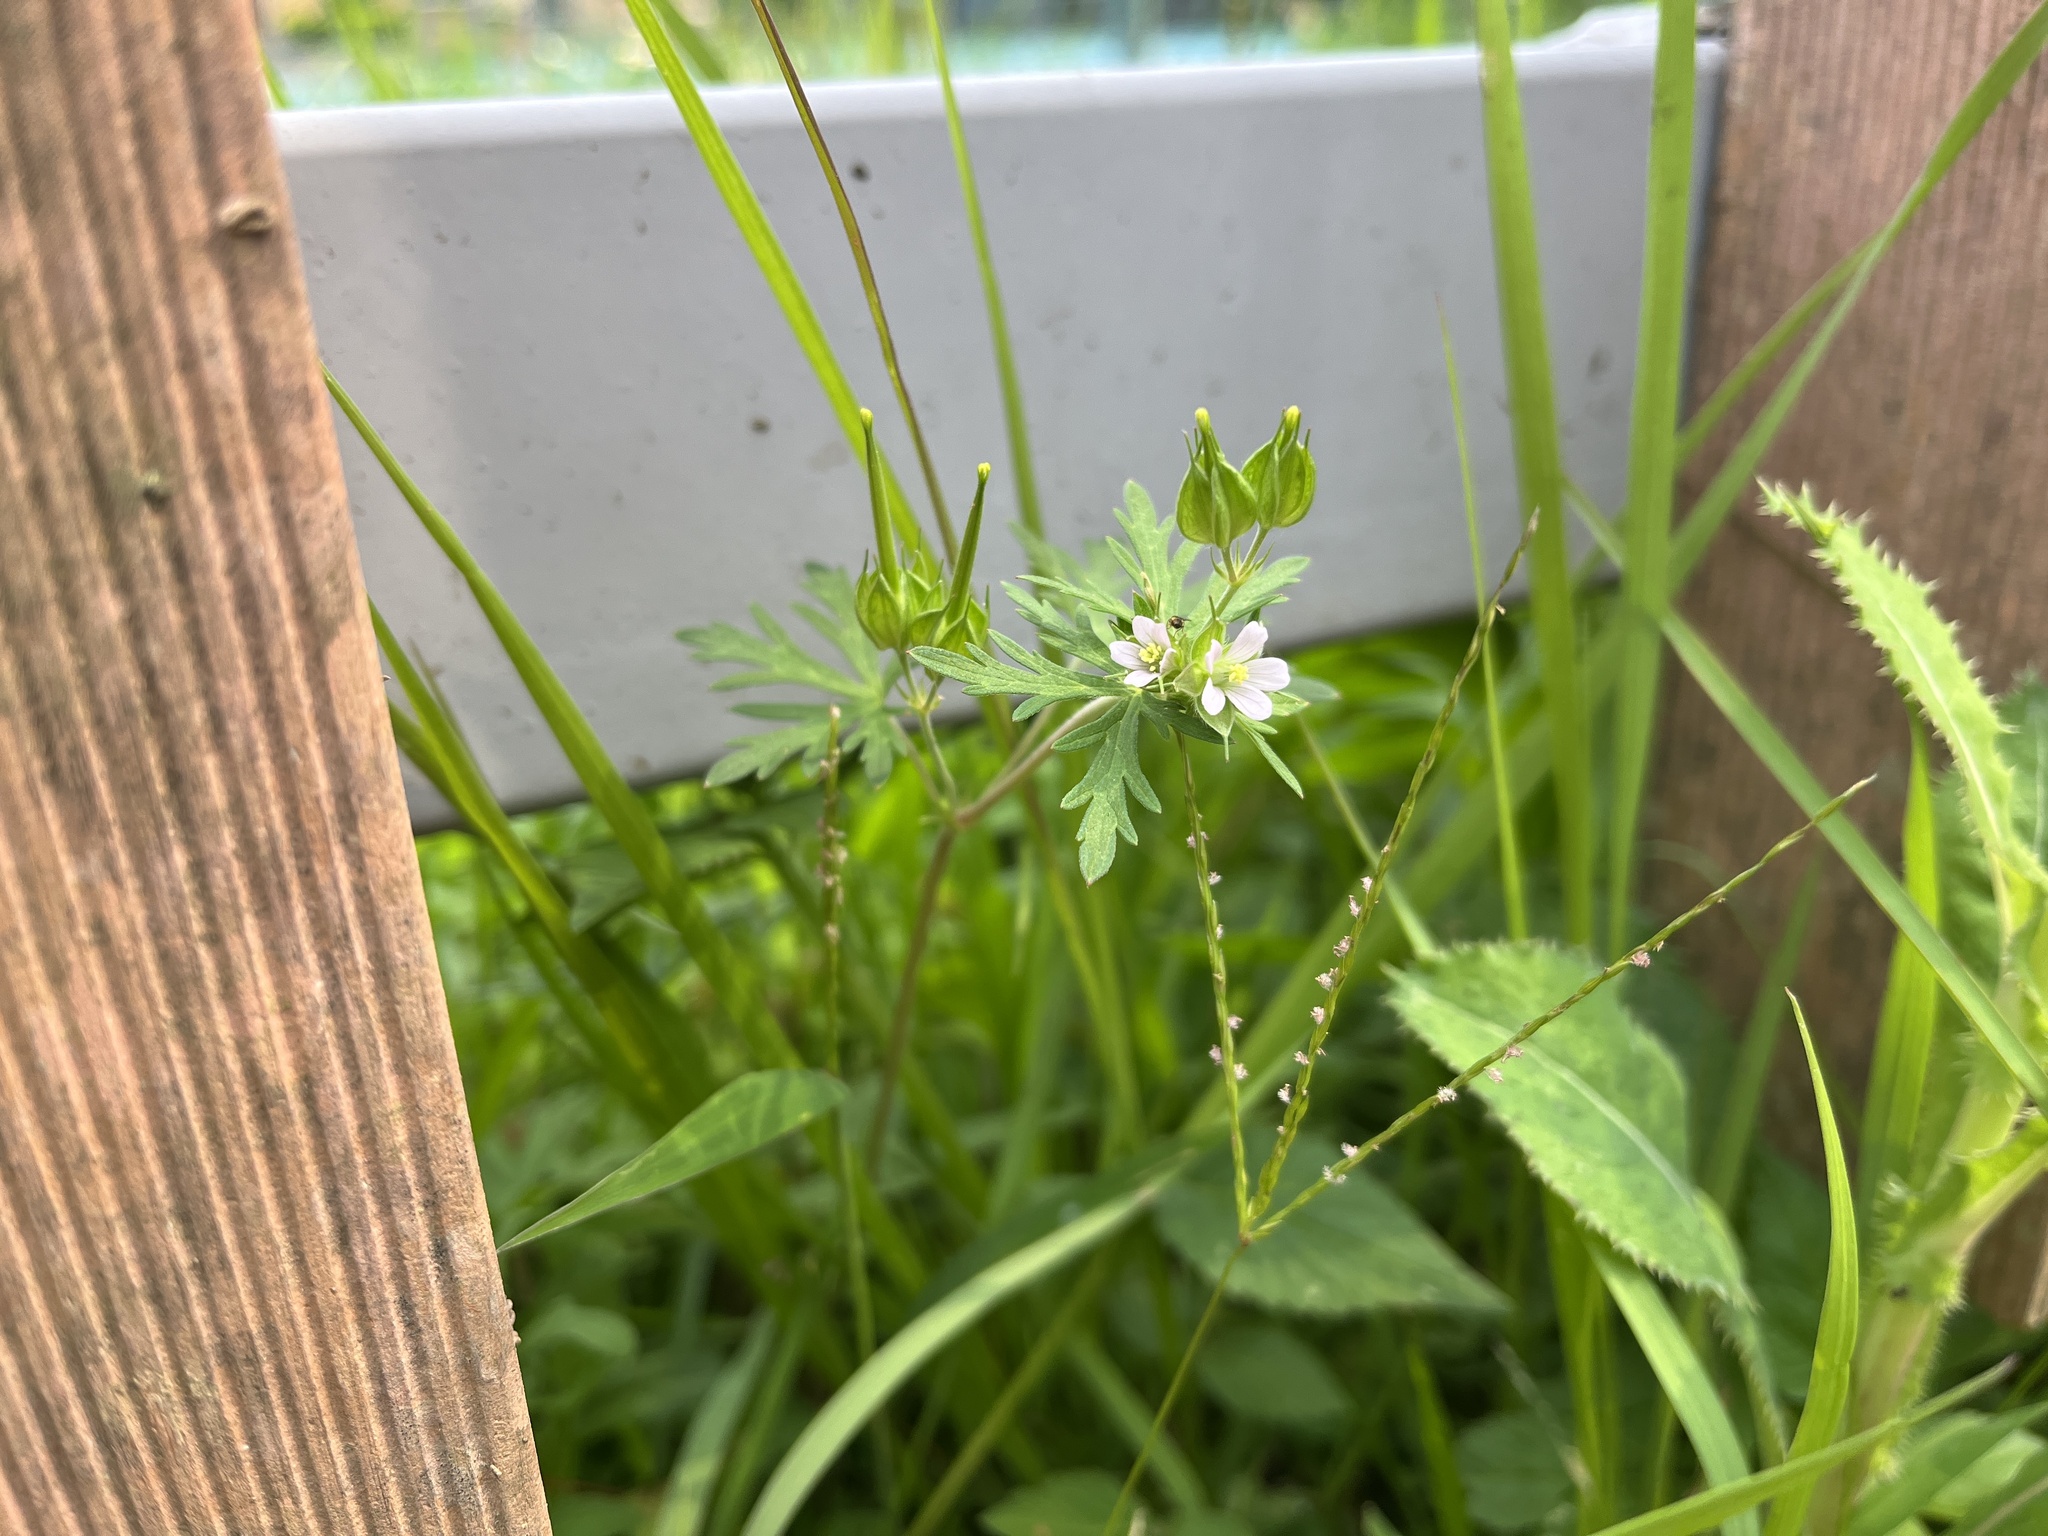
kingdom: Plantae
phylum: Tracheophyta
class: Magnoliopsida
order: Geraniales
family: Geraniaceae
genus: Geranium
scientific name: Geranium carolinianum
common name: Carolina crane's-bill
